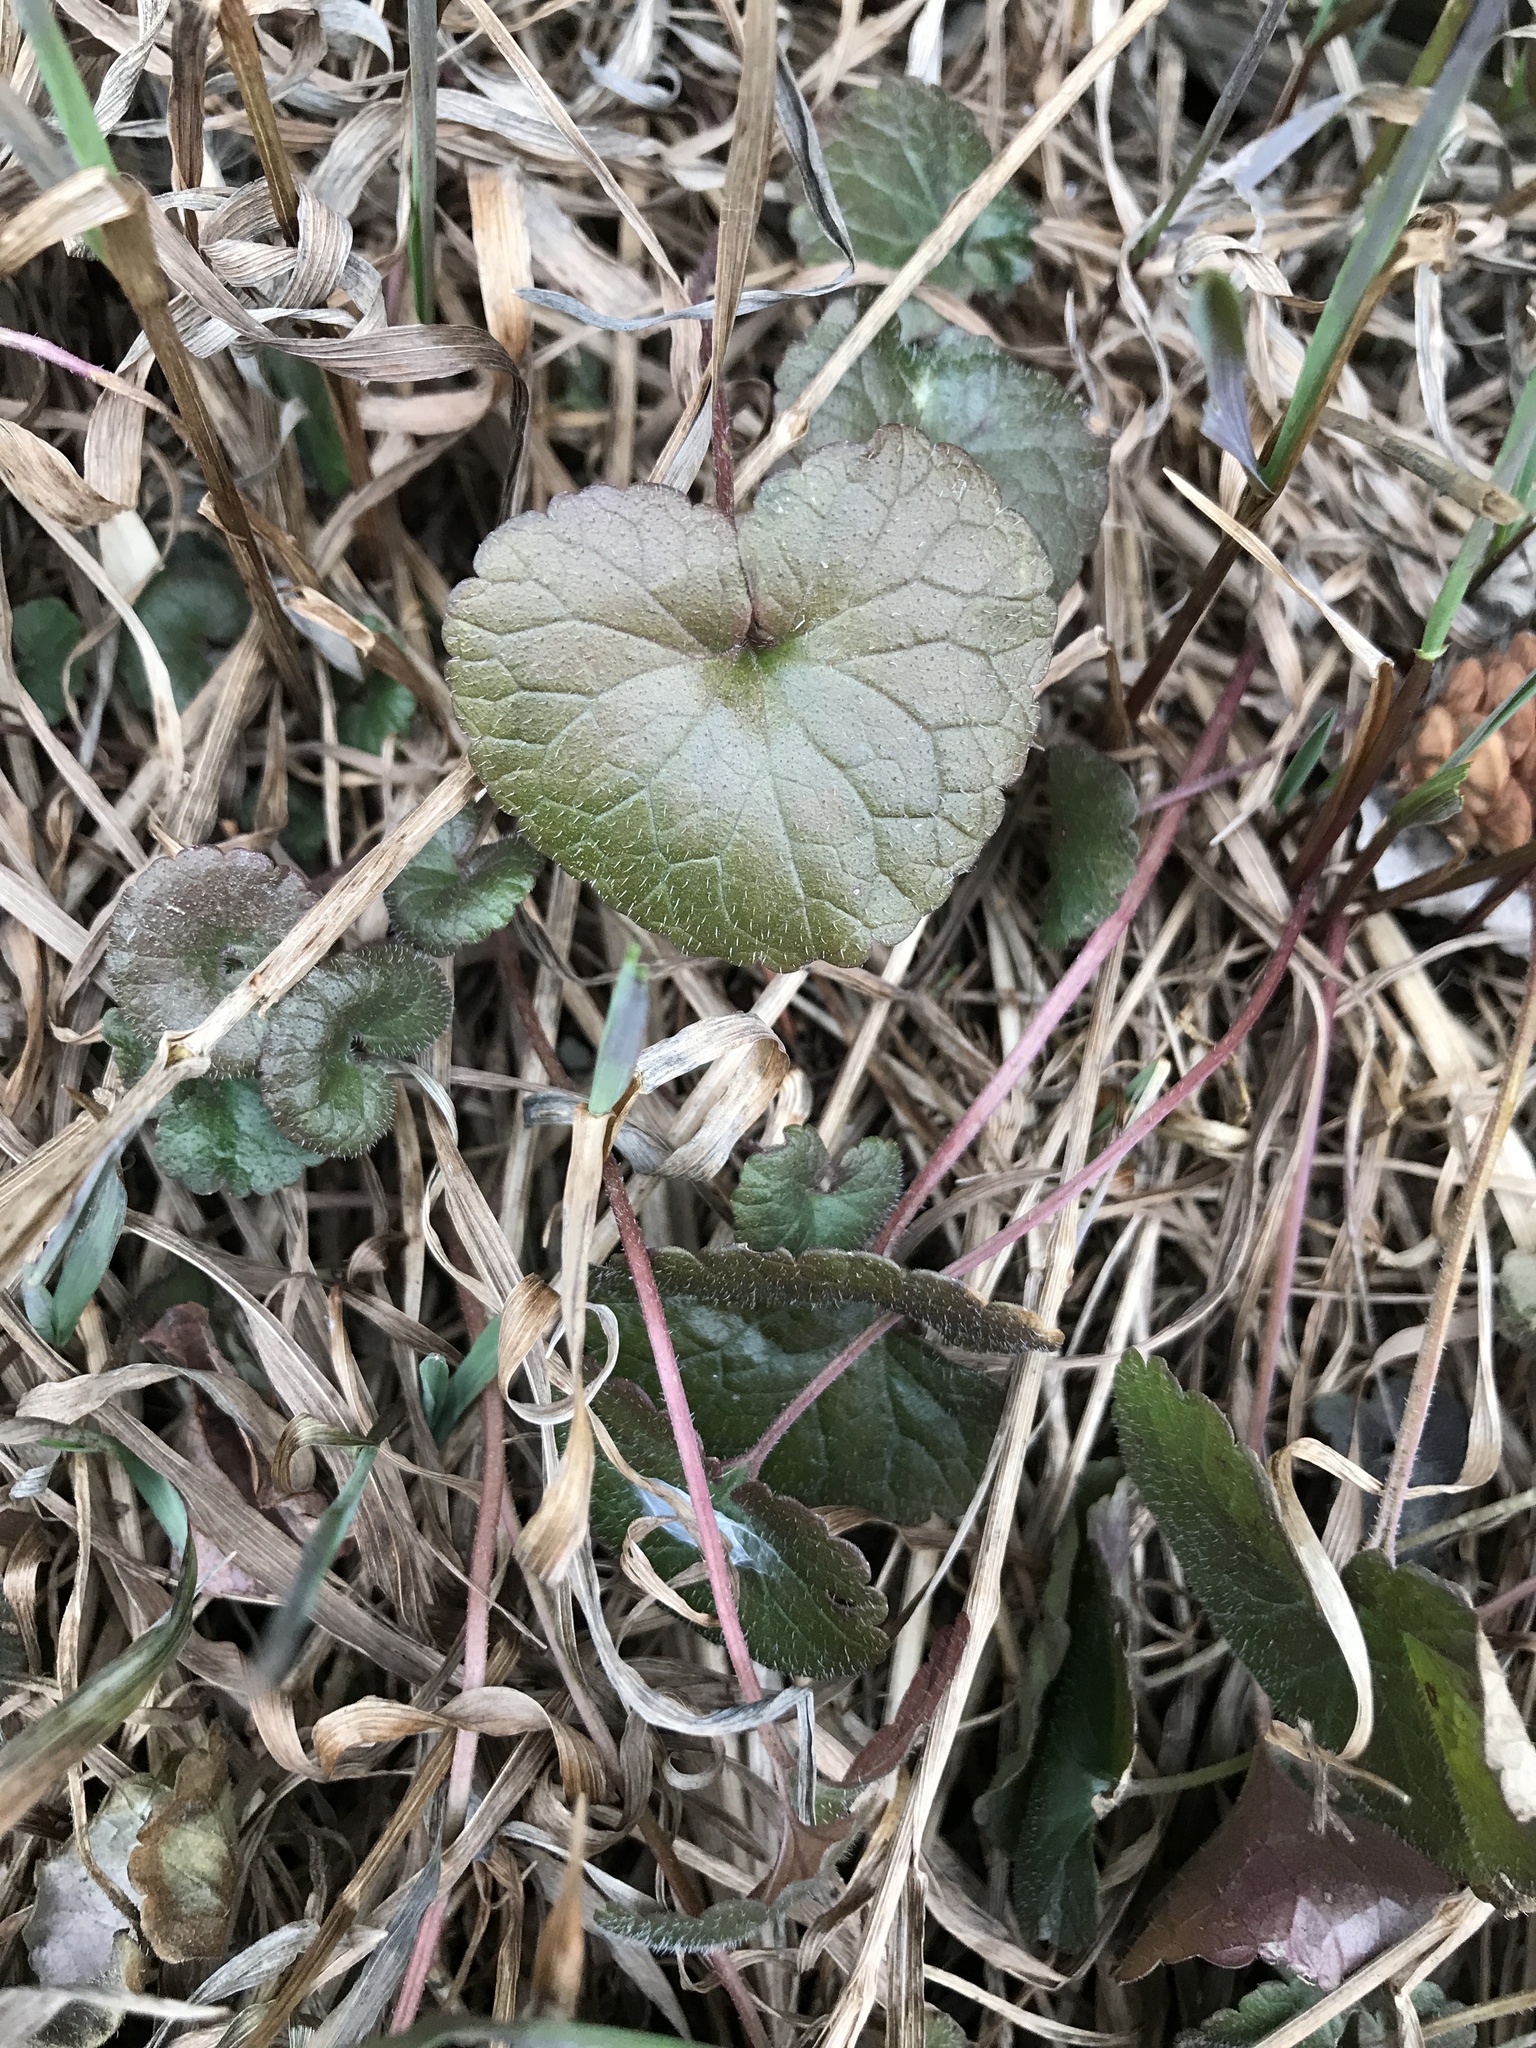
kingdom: Plantae
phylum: Tracheophyta
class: Magnoliopsida
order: Lamiales
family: Lamiaceae
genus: Glechoma
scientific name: Glechoma hederacea
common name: Ground ivy
